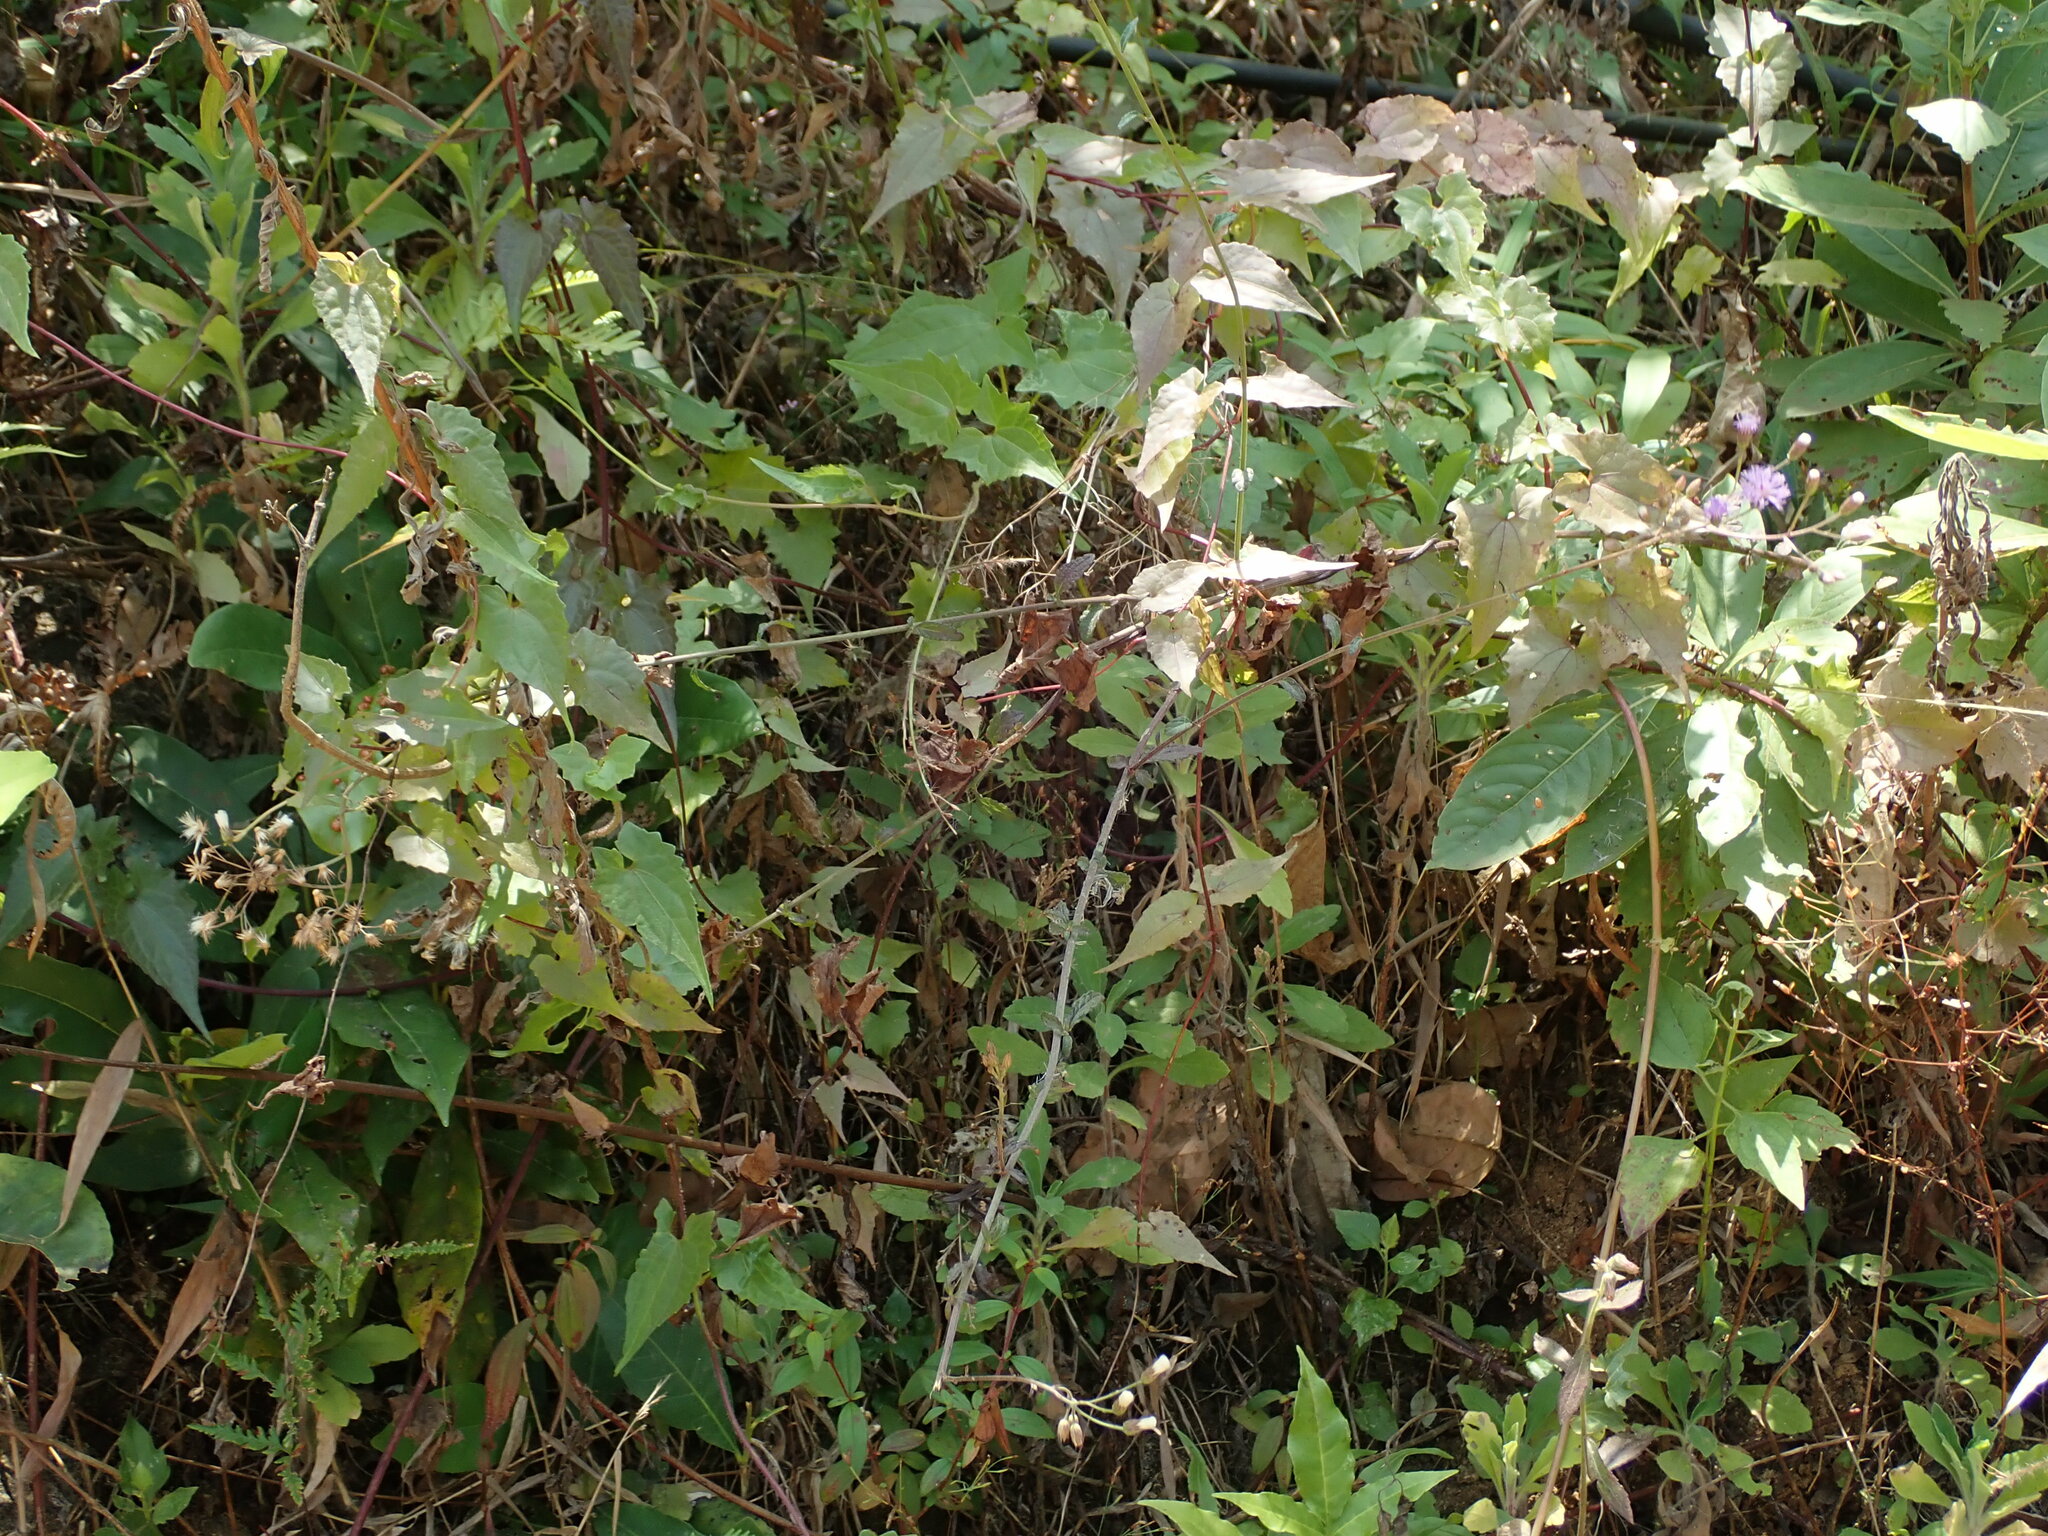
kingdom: Plantae
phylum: Tracheophyta
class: Magnoliopsida
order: Asterales
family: Asteraceae
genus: Mikania
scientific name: Mikania micrantha
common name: Mile-a-minute
